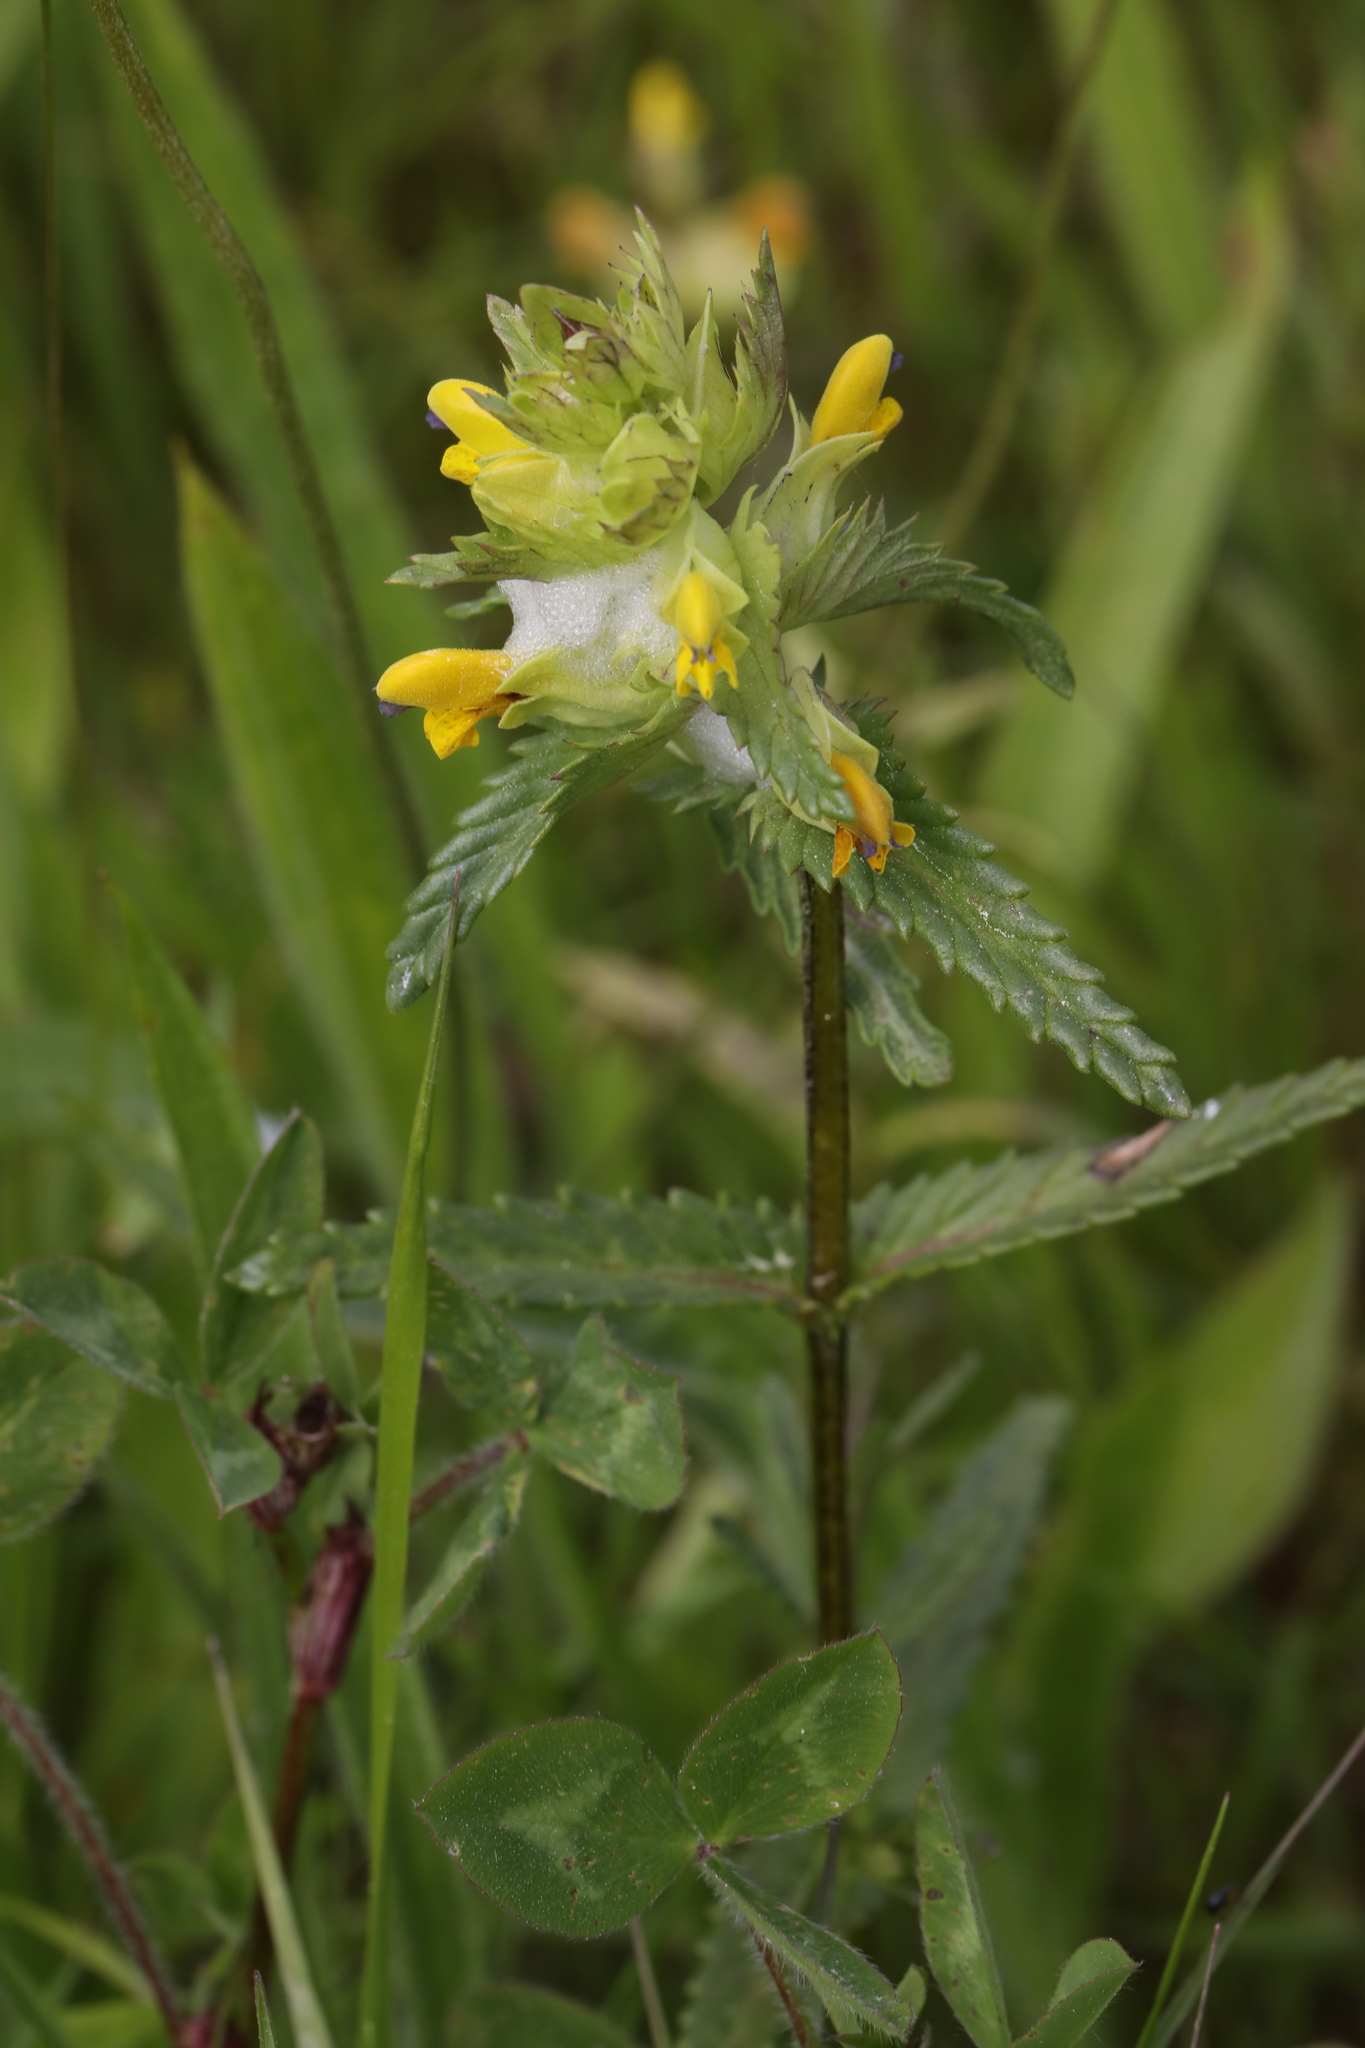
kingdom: Plantae
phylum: Tracheophyta
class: Magnoliopsida
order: Lamiales
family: Orobanchaceae
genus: Rhinanthus
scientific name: Rhinanthus minor
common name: Yellow-rattle
